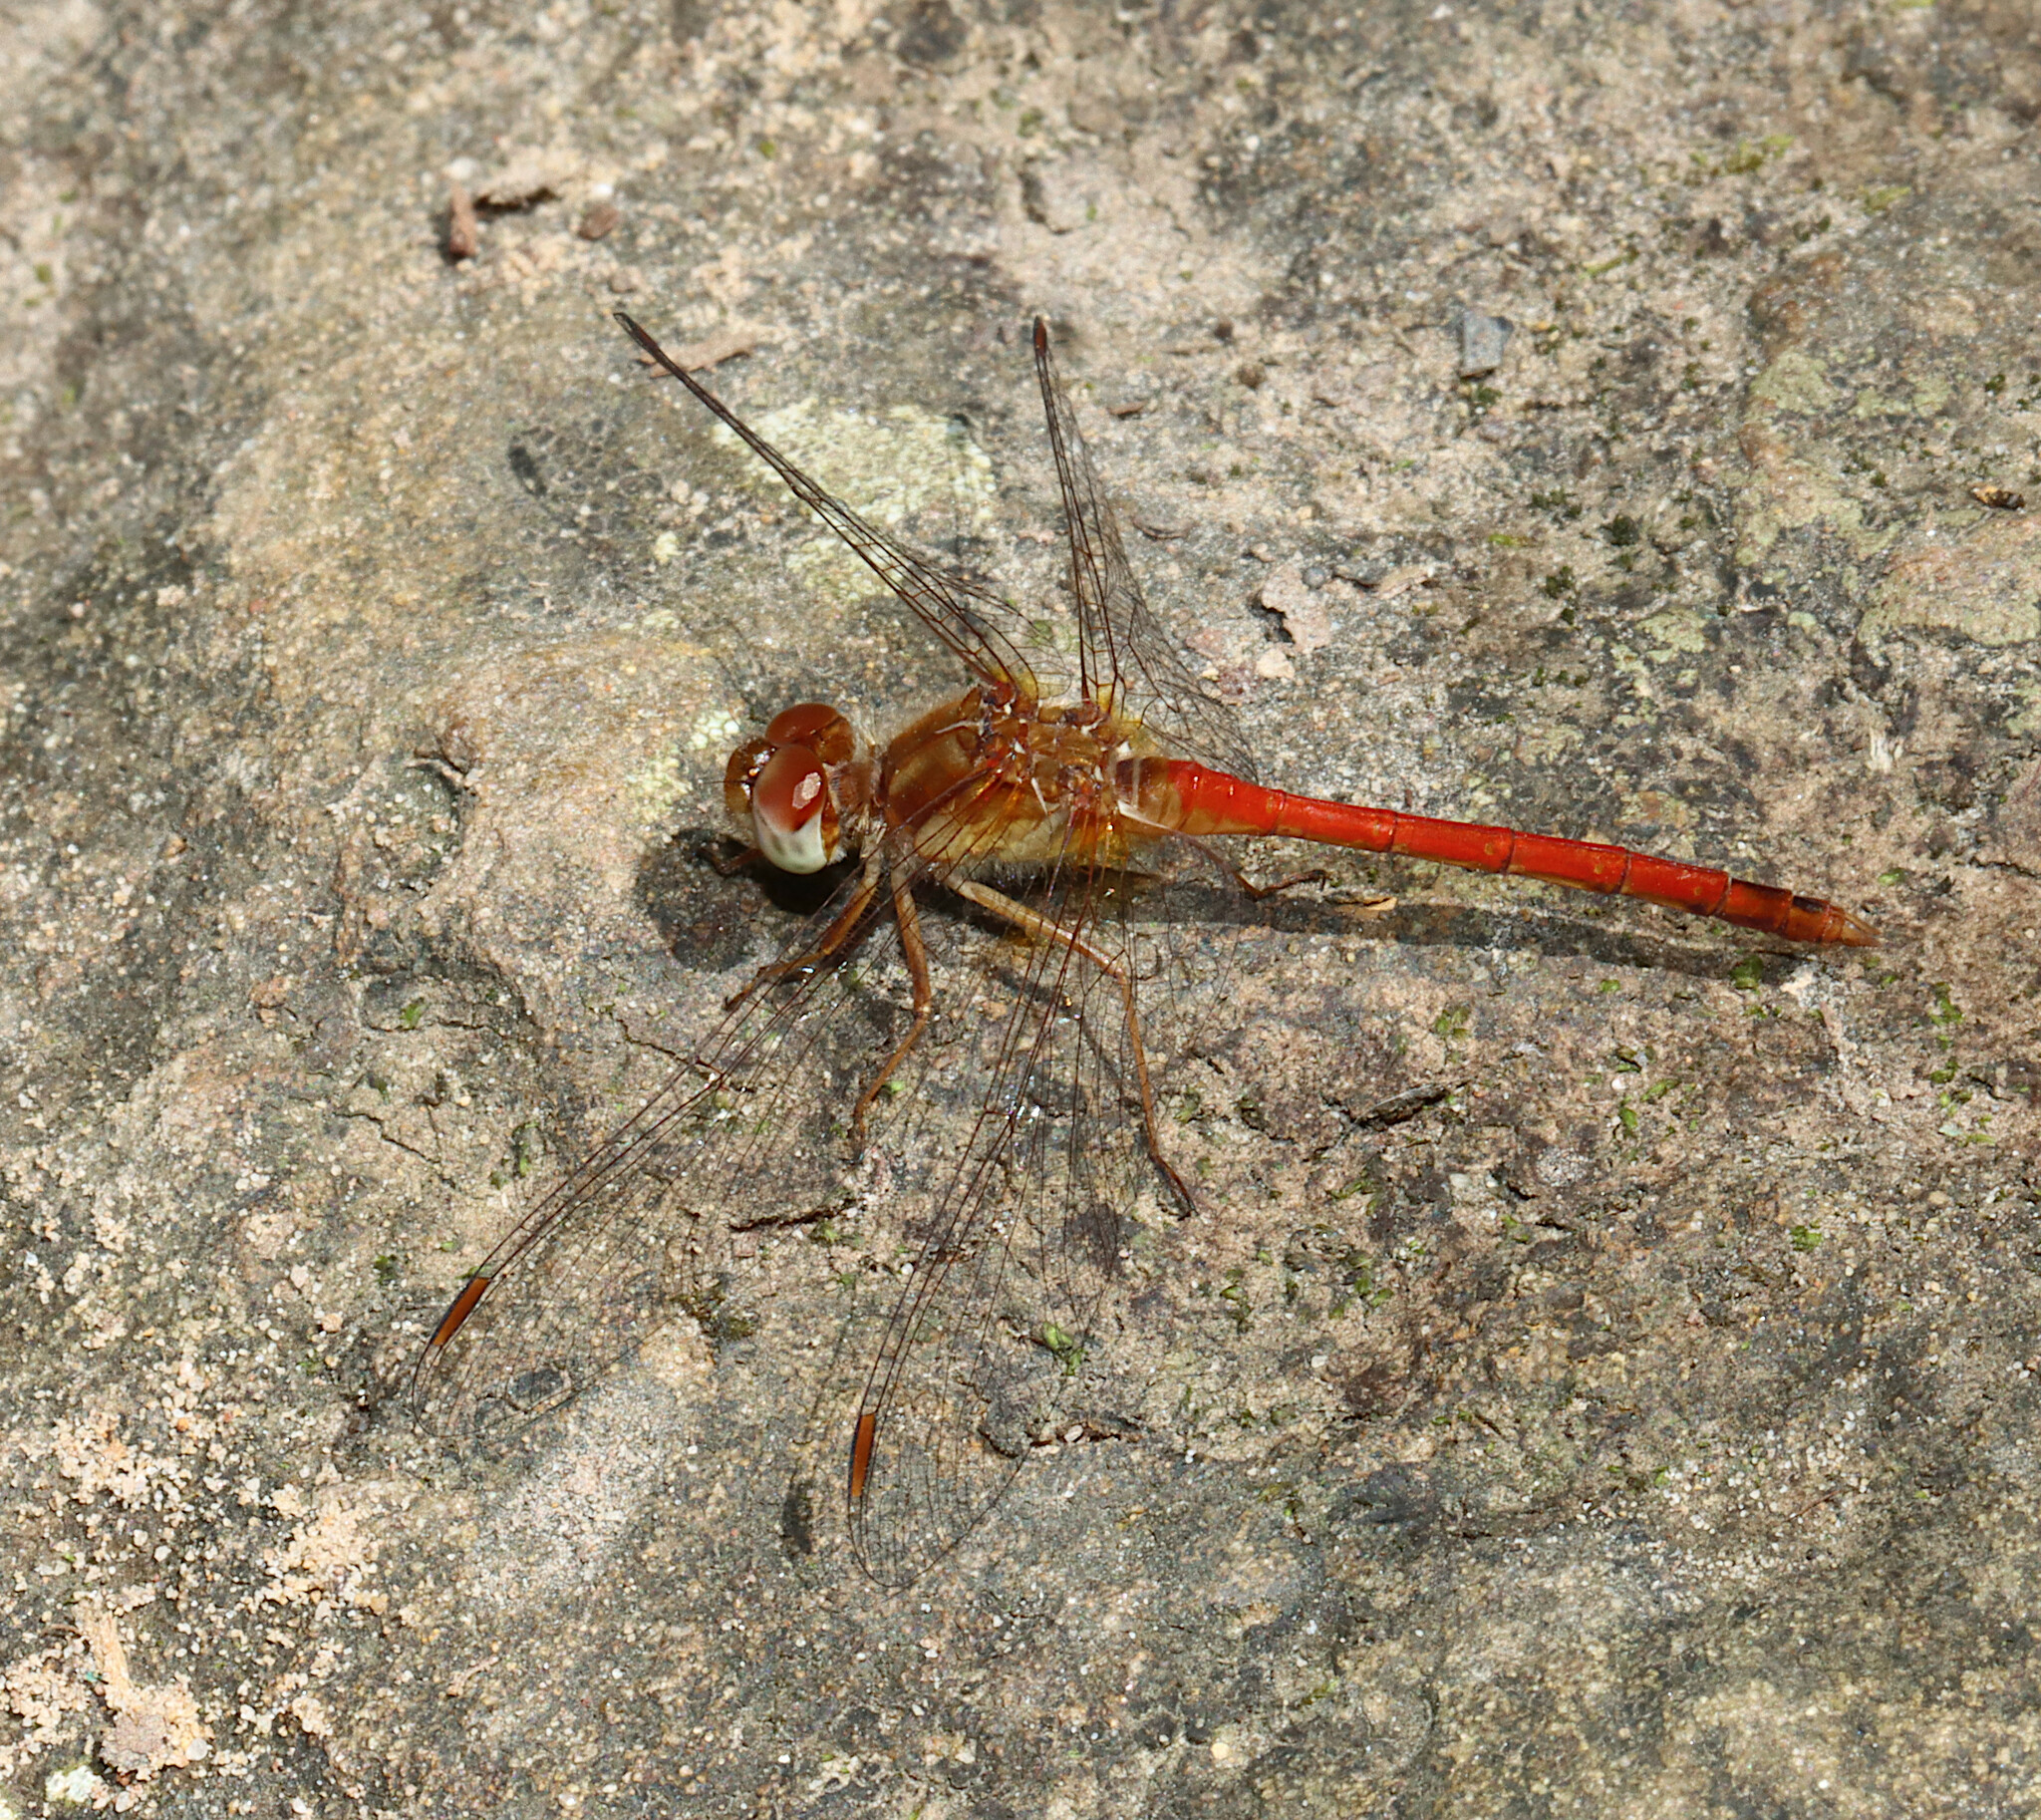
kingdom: Animalia
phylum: Arthropoda
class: Insecta
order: Odonata
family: Libellulidae
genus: Sympetrum
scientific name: Sympetrum vicinum
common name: Autumn meadowhawk
